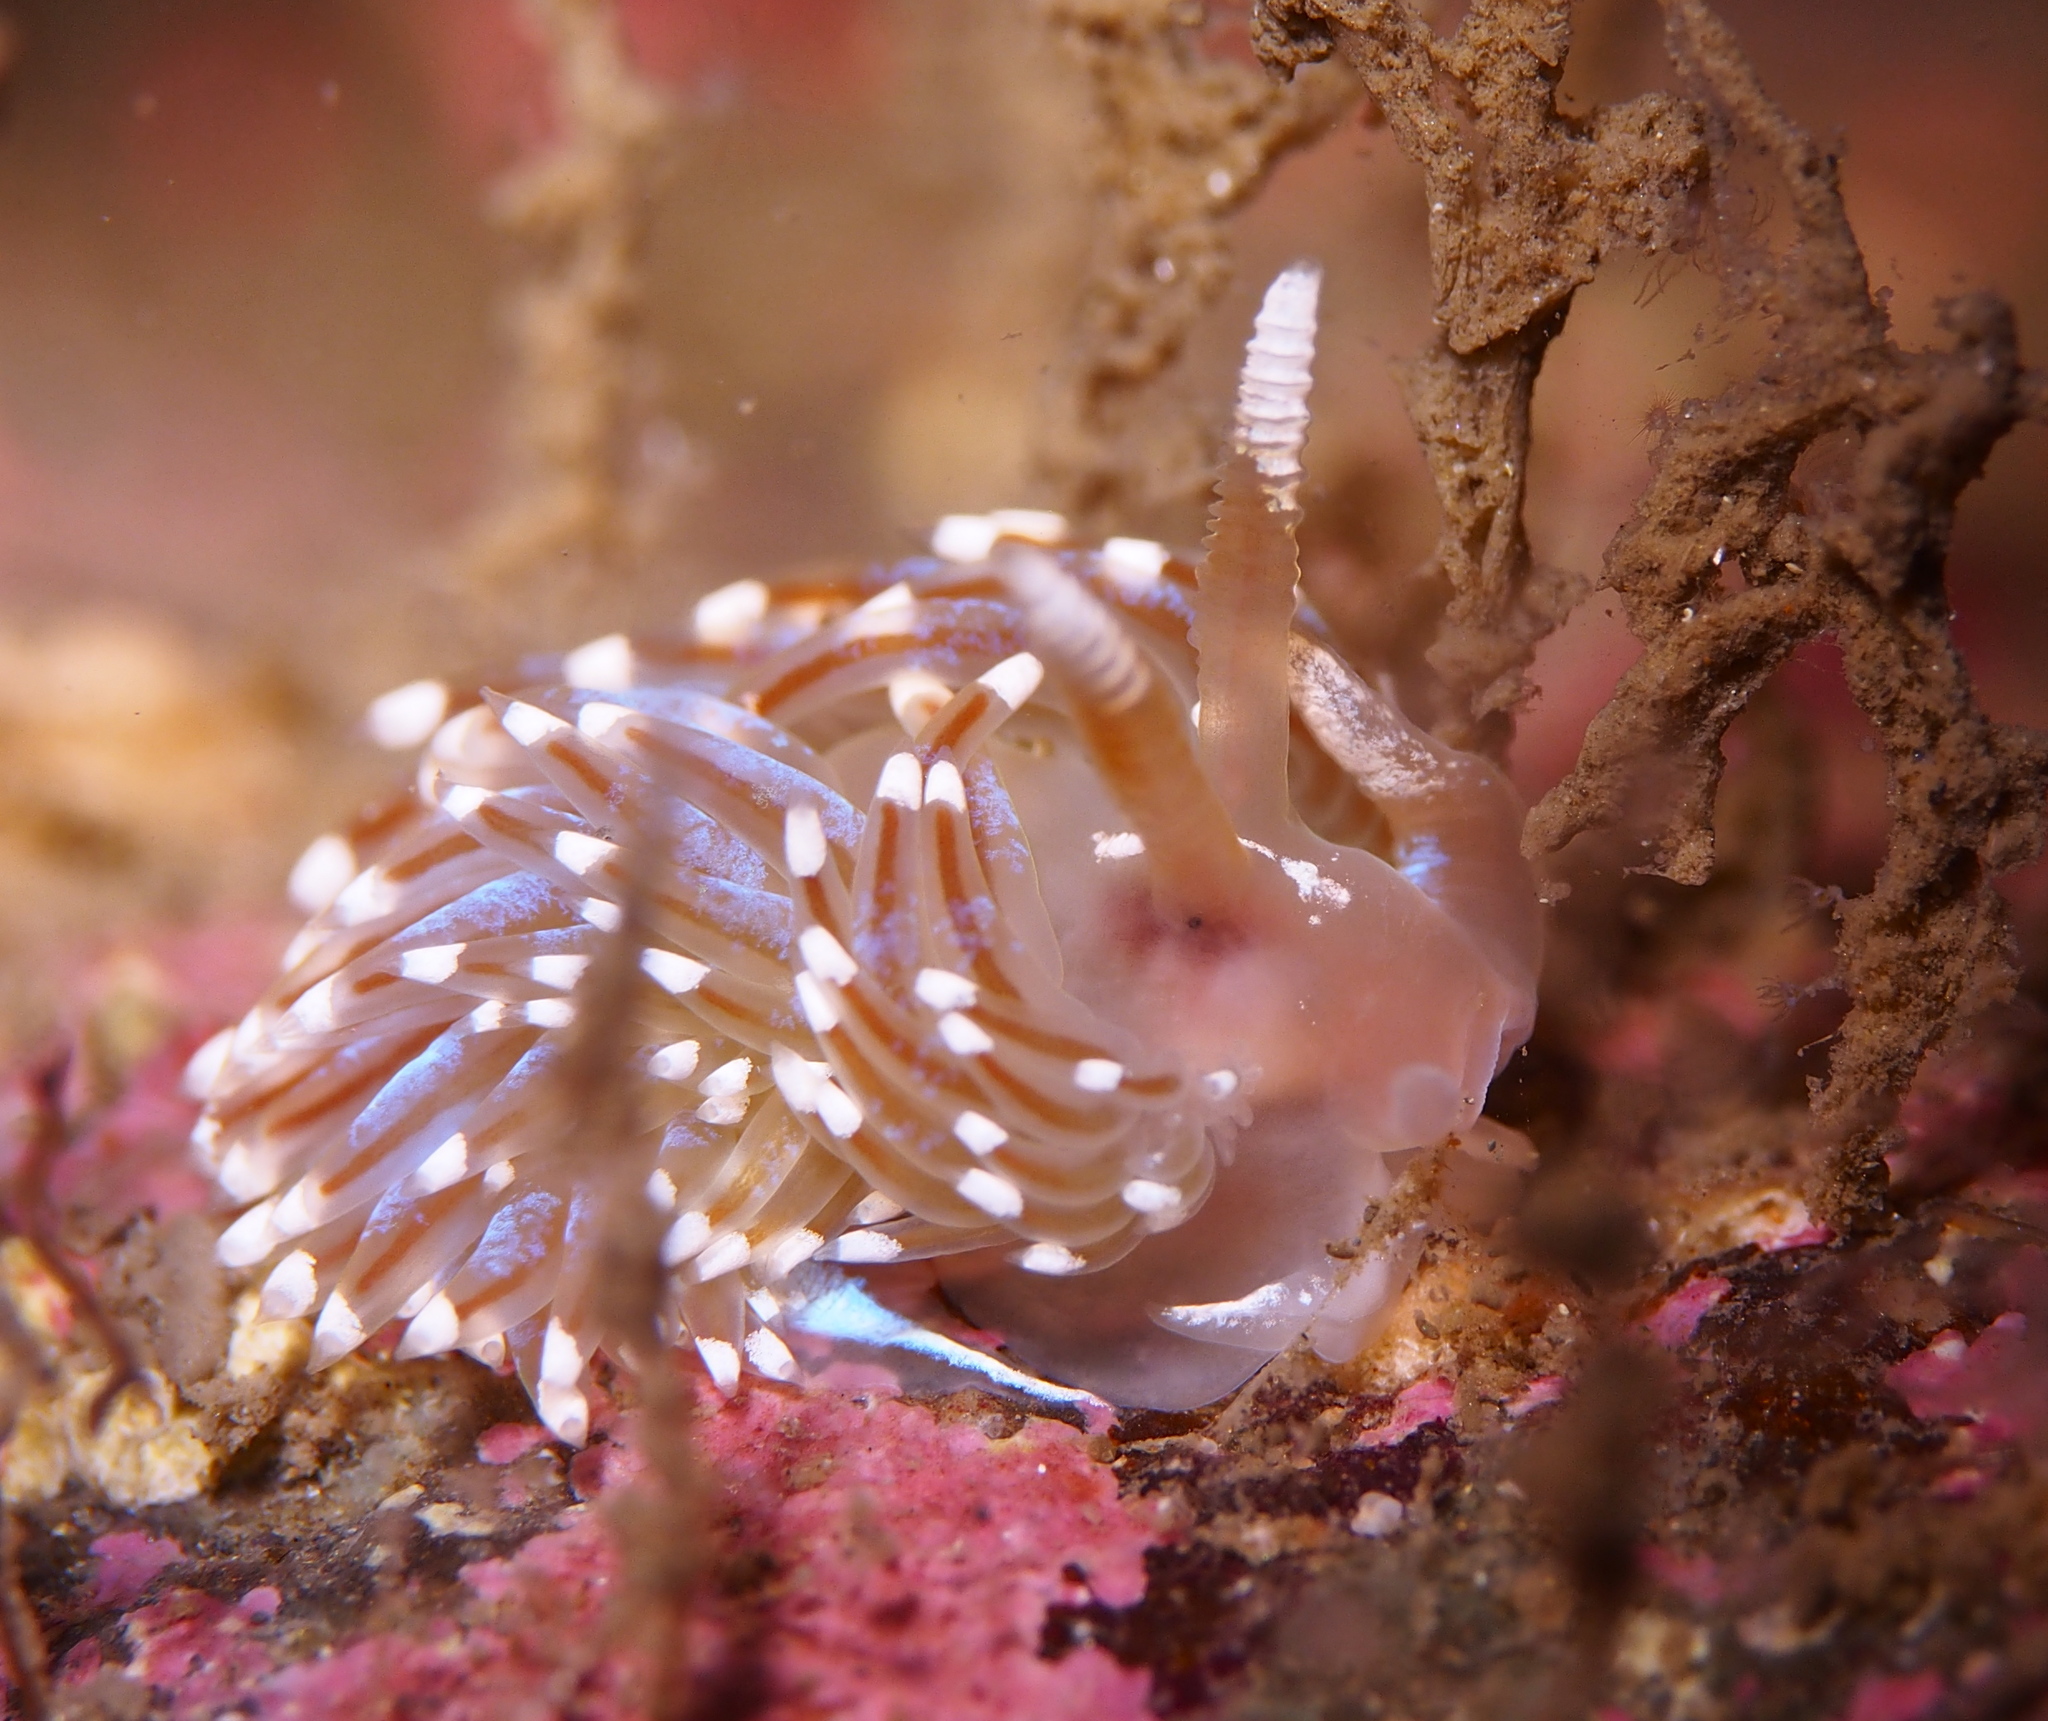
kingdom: Animalia
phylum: Mollusca
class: Gastropoda
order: Nudibranchia
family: Facelinidae
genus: Facelina
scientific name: Facelina auriculata
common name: Slender facelina
